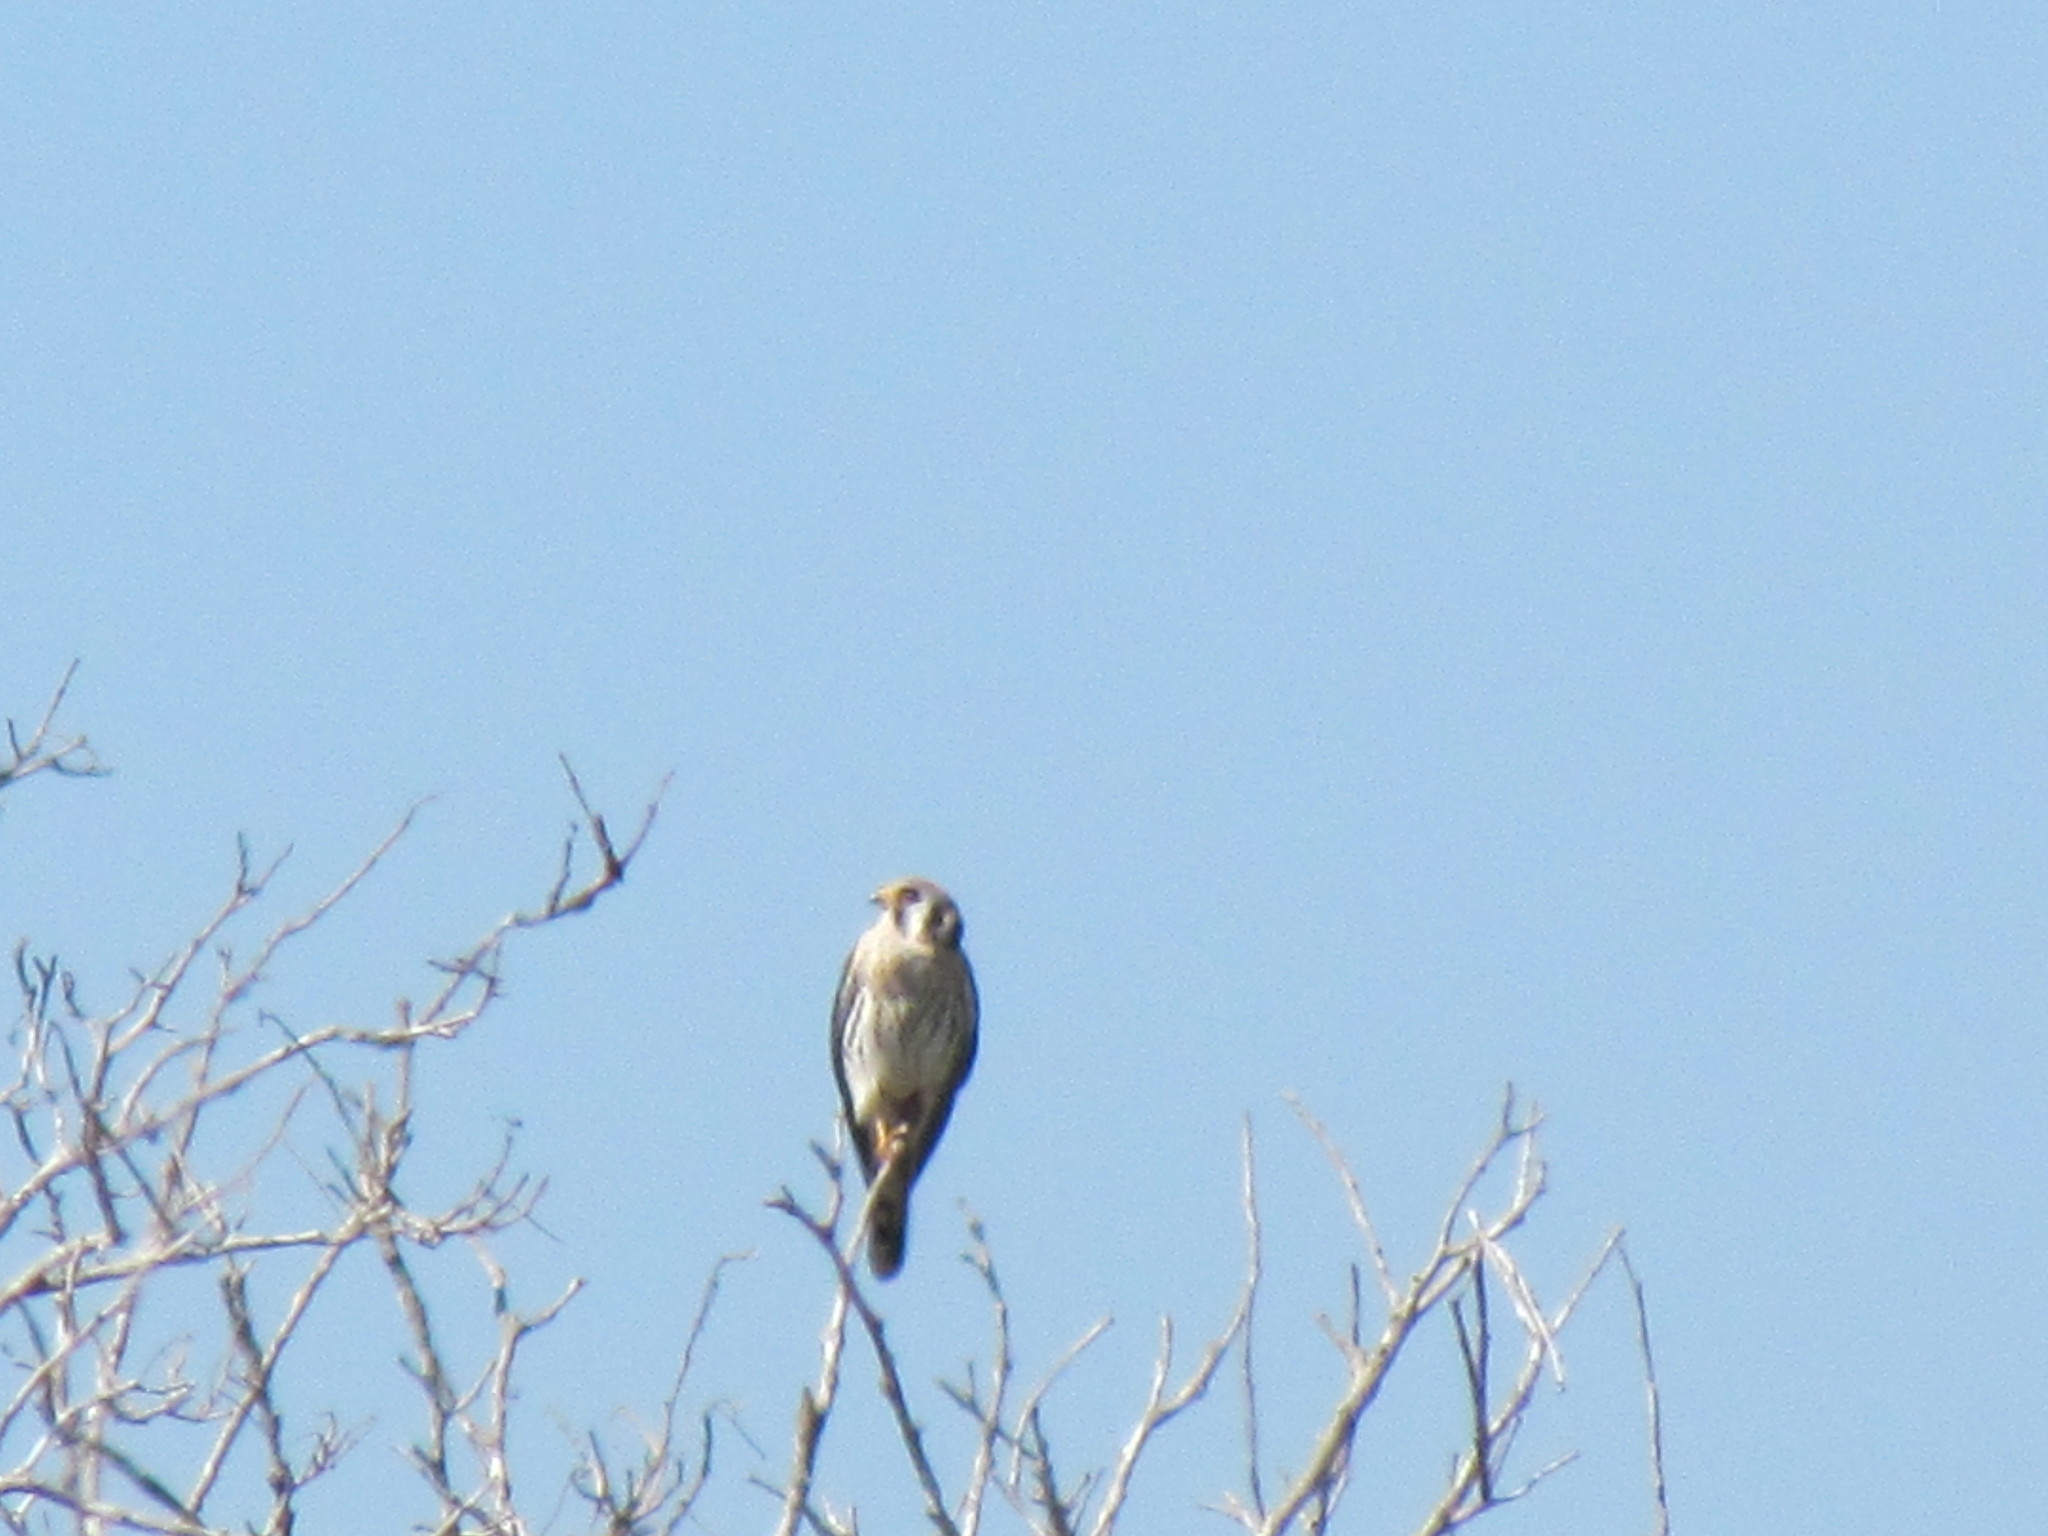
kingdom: Animalia
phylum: Chordata
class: Aves
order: Falconiformes
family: Falconidae
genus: Falco
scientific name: Falco sparverius
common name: American kestrel
